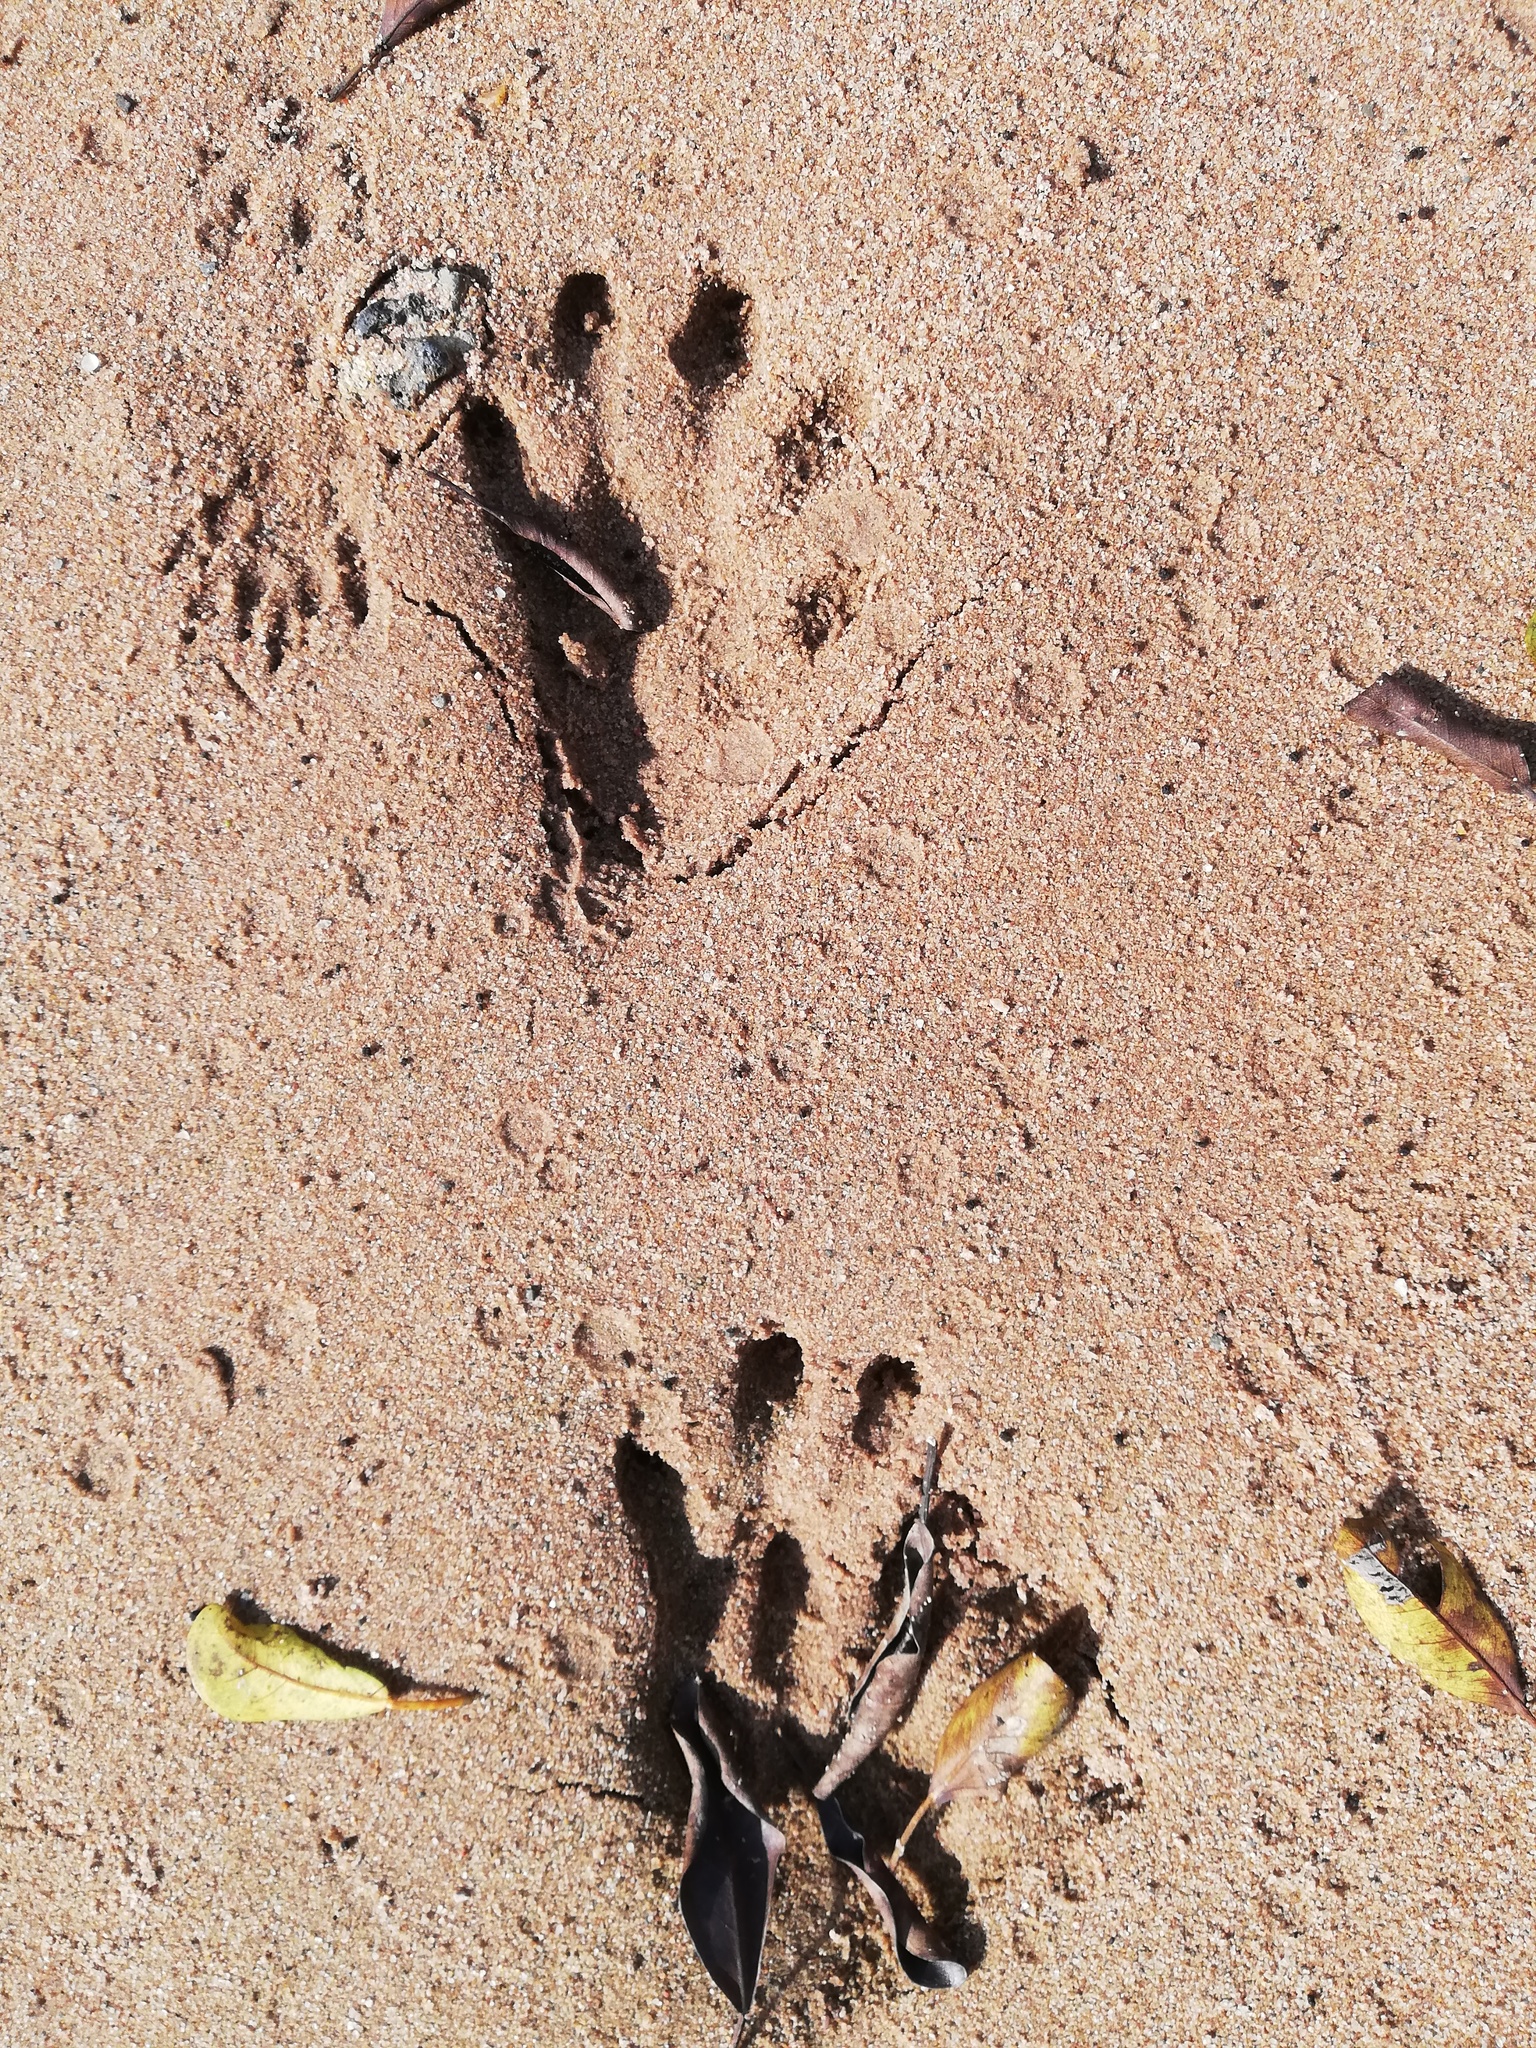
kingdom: Animalia
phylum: Chordata
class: Mammalia
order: Carnivora
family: Mustelidae
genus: Aonyx
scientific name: Aonyx capensis
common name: African clawless otter
